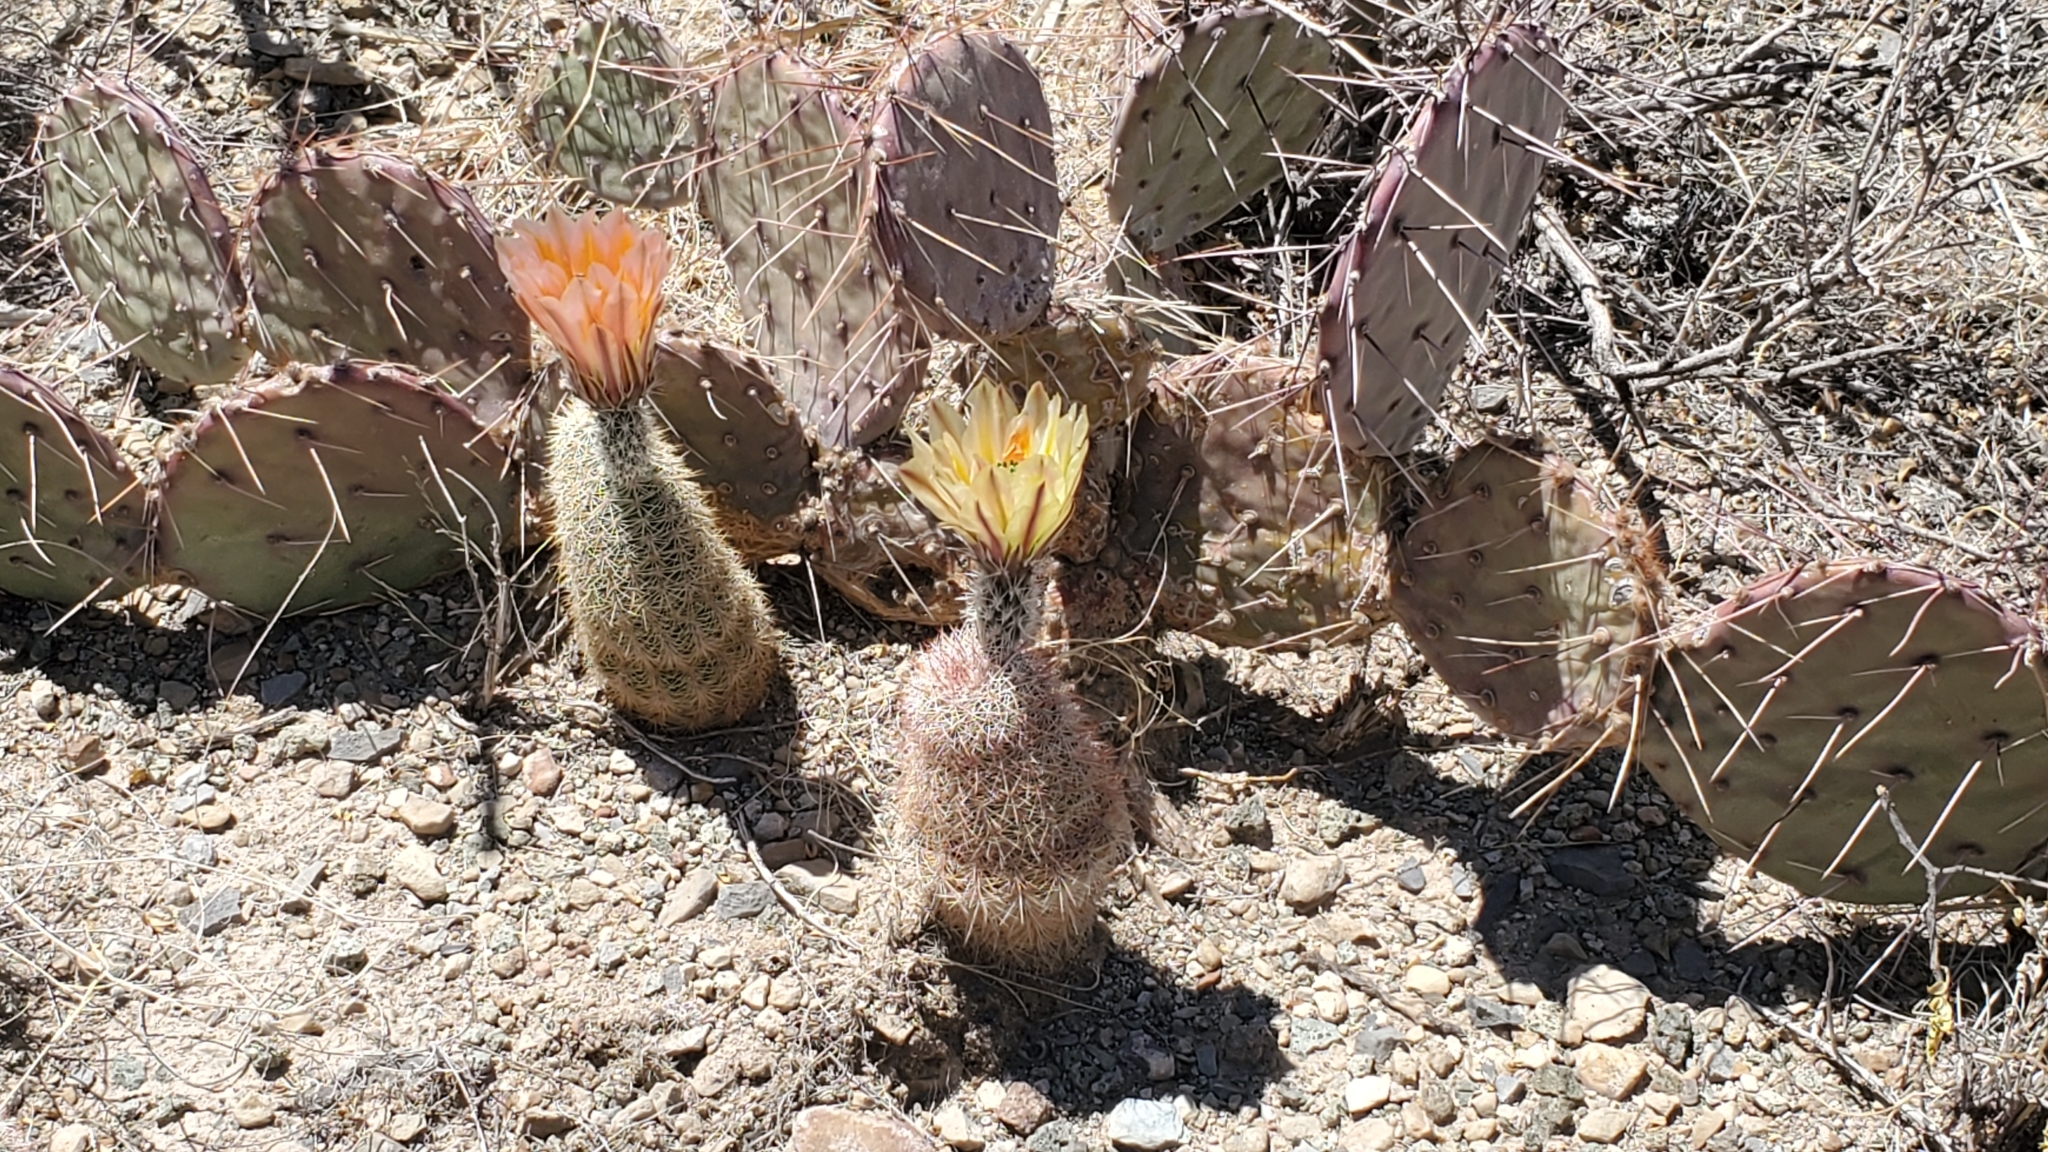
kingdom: Plantae
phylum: Tracheophyta
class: Magnoliopsida
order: Caryophyllales
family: Cactaceae
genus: Echinocereus
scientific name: Echinocereus dasyacanthus
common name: Spiny hedgehog cactus
